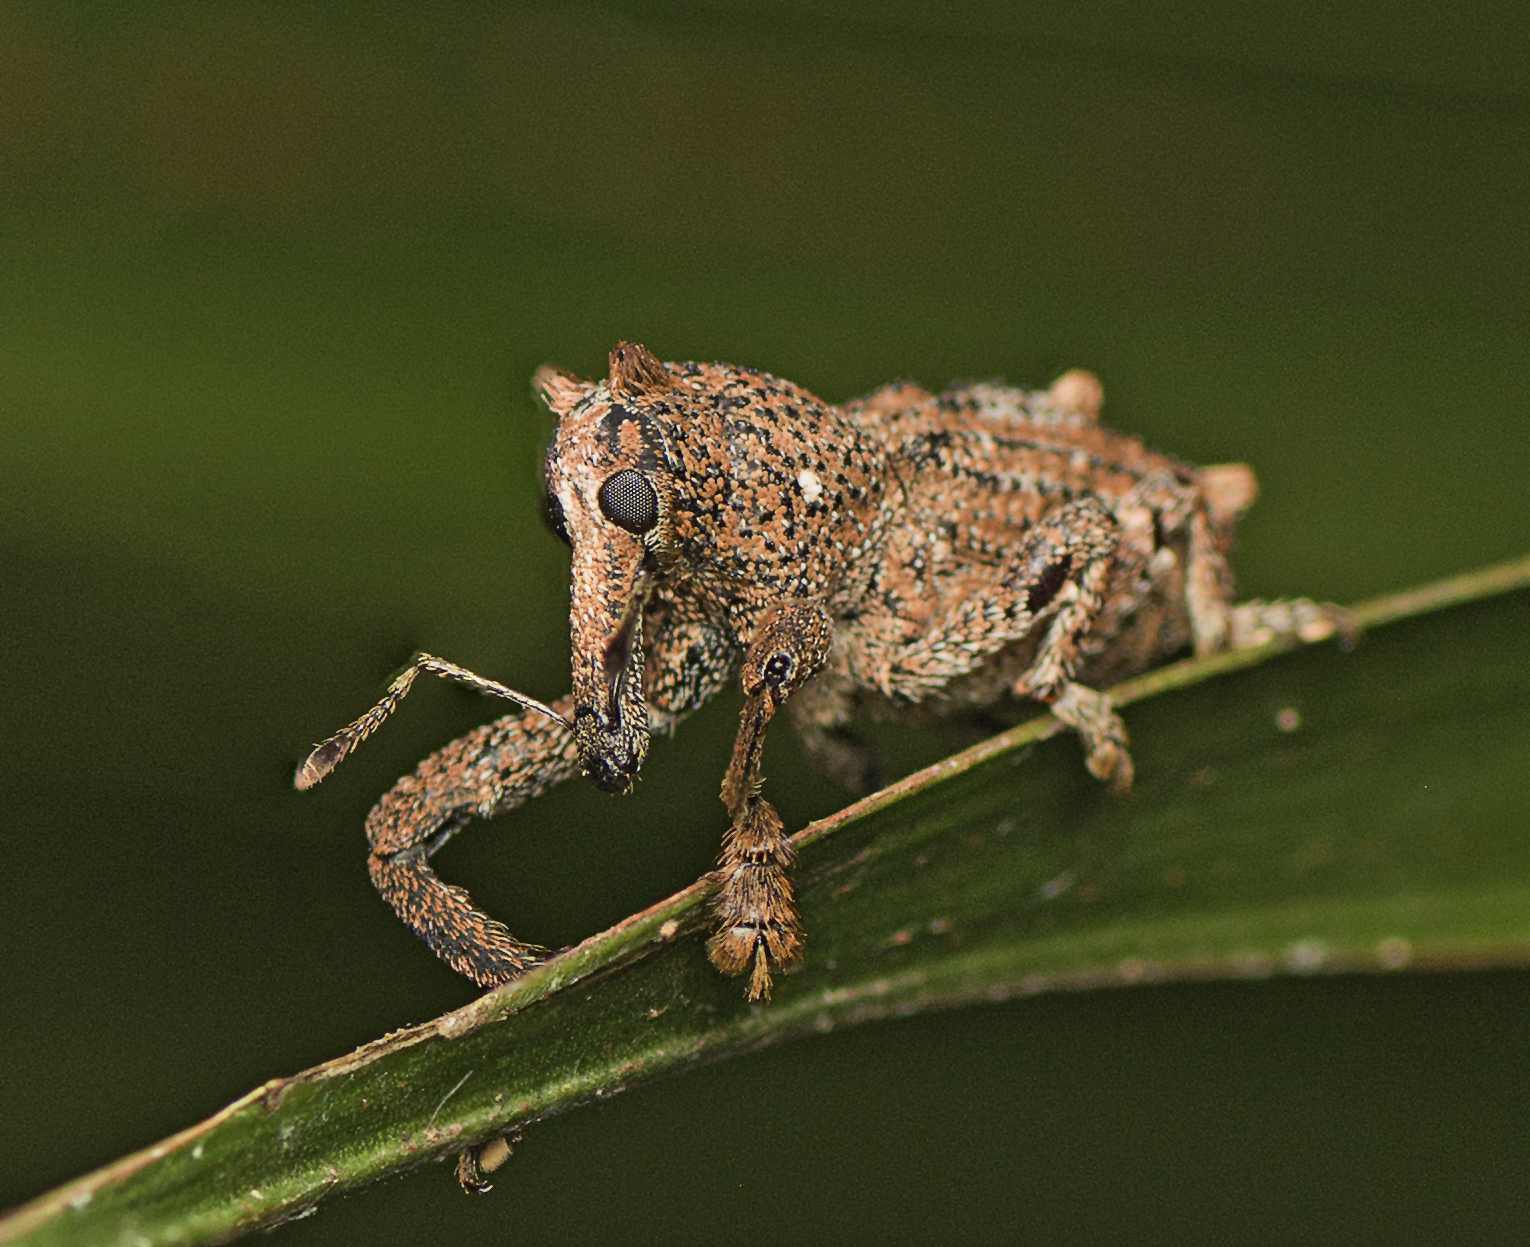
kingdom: Animalia
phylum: Arthropoda
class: Insecta
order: Coleoptera
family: Curculionidae
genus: Orthorhinus
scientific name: Orthorhinus cylindrirostris
